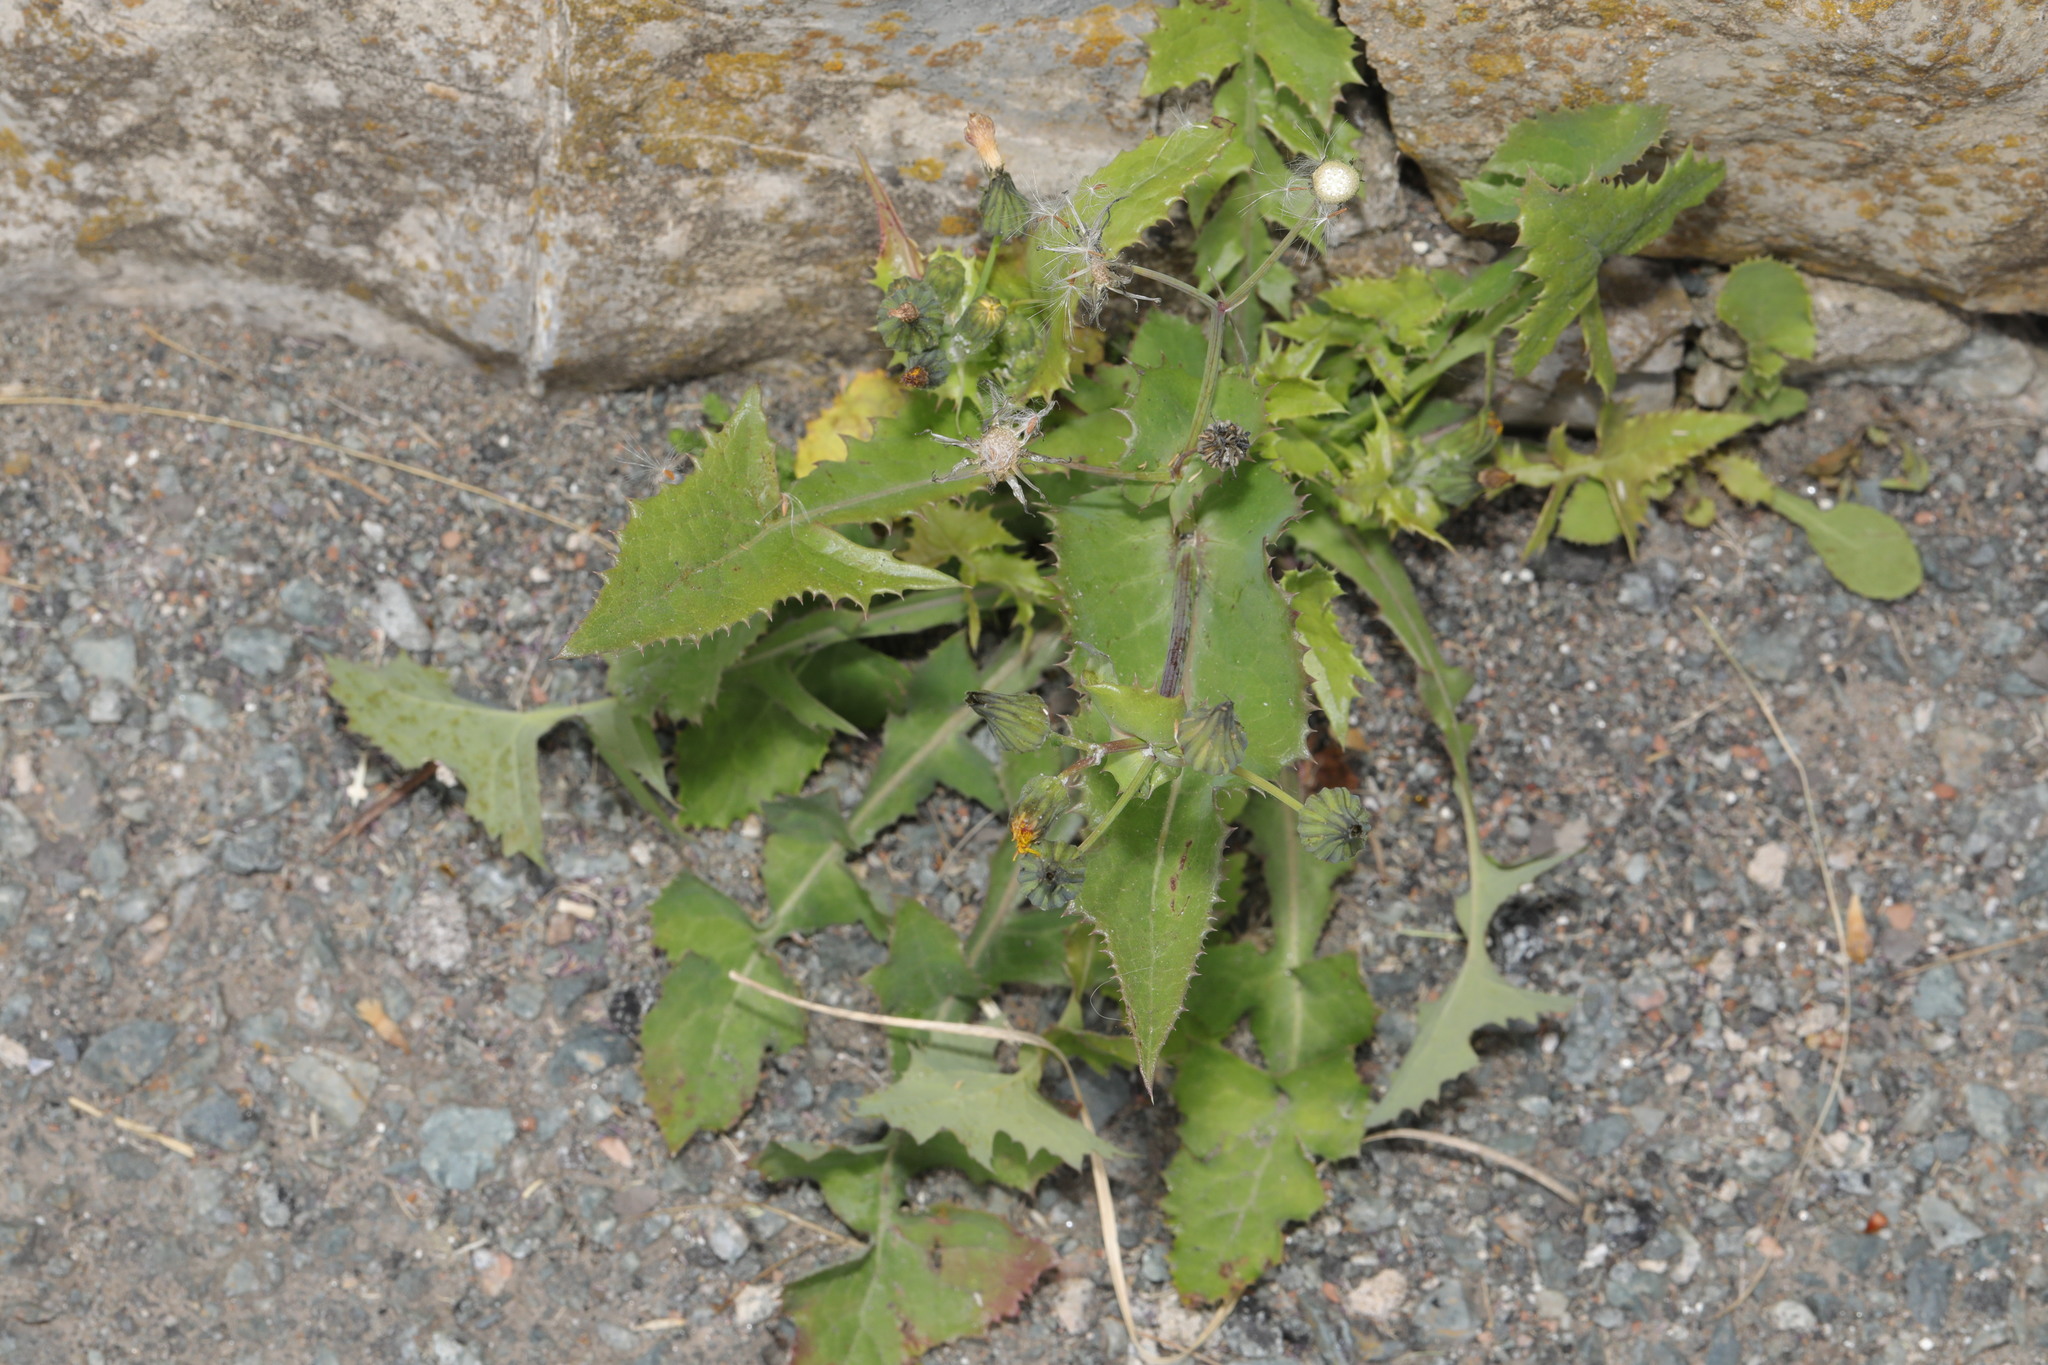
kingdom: Plantae
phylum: Tracheophyta
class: Magnoliopsida
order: Asterales
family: Asteraceae
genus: Sonchus
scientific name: Sonchus oleraceus
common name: Common sowthistle
